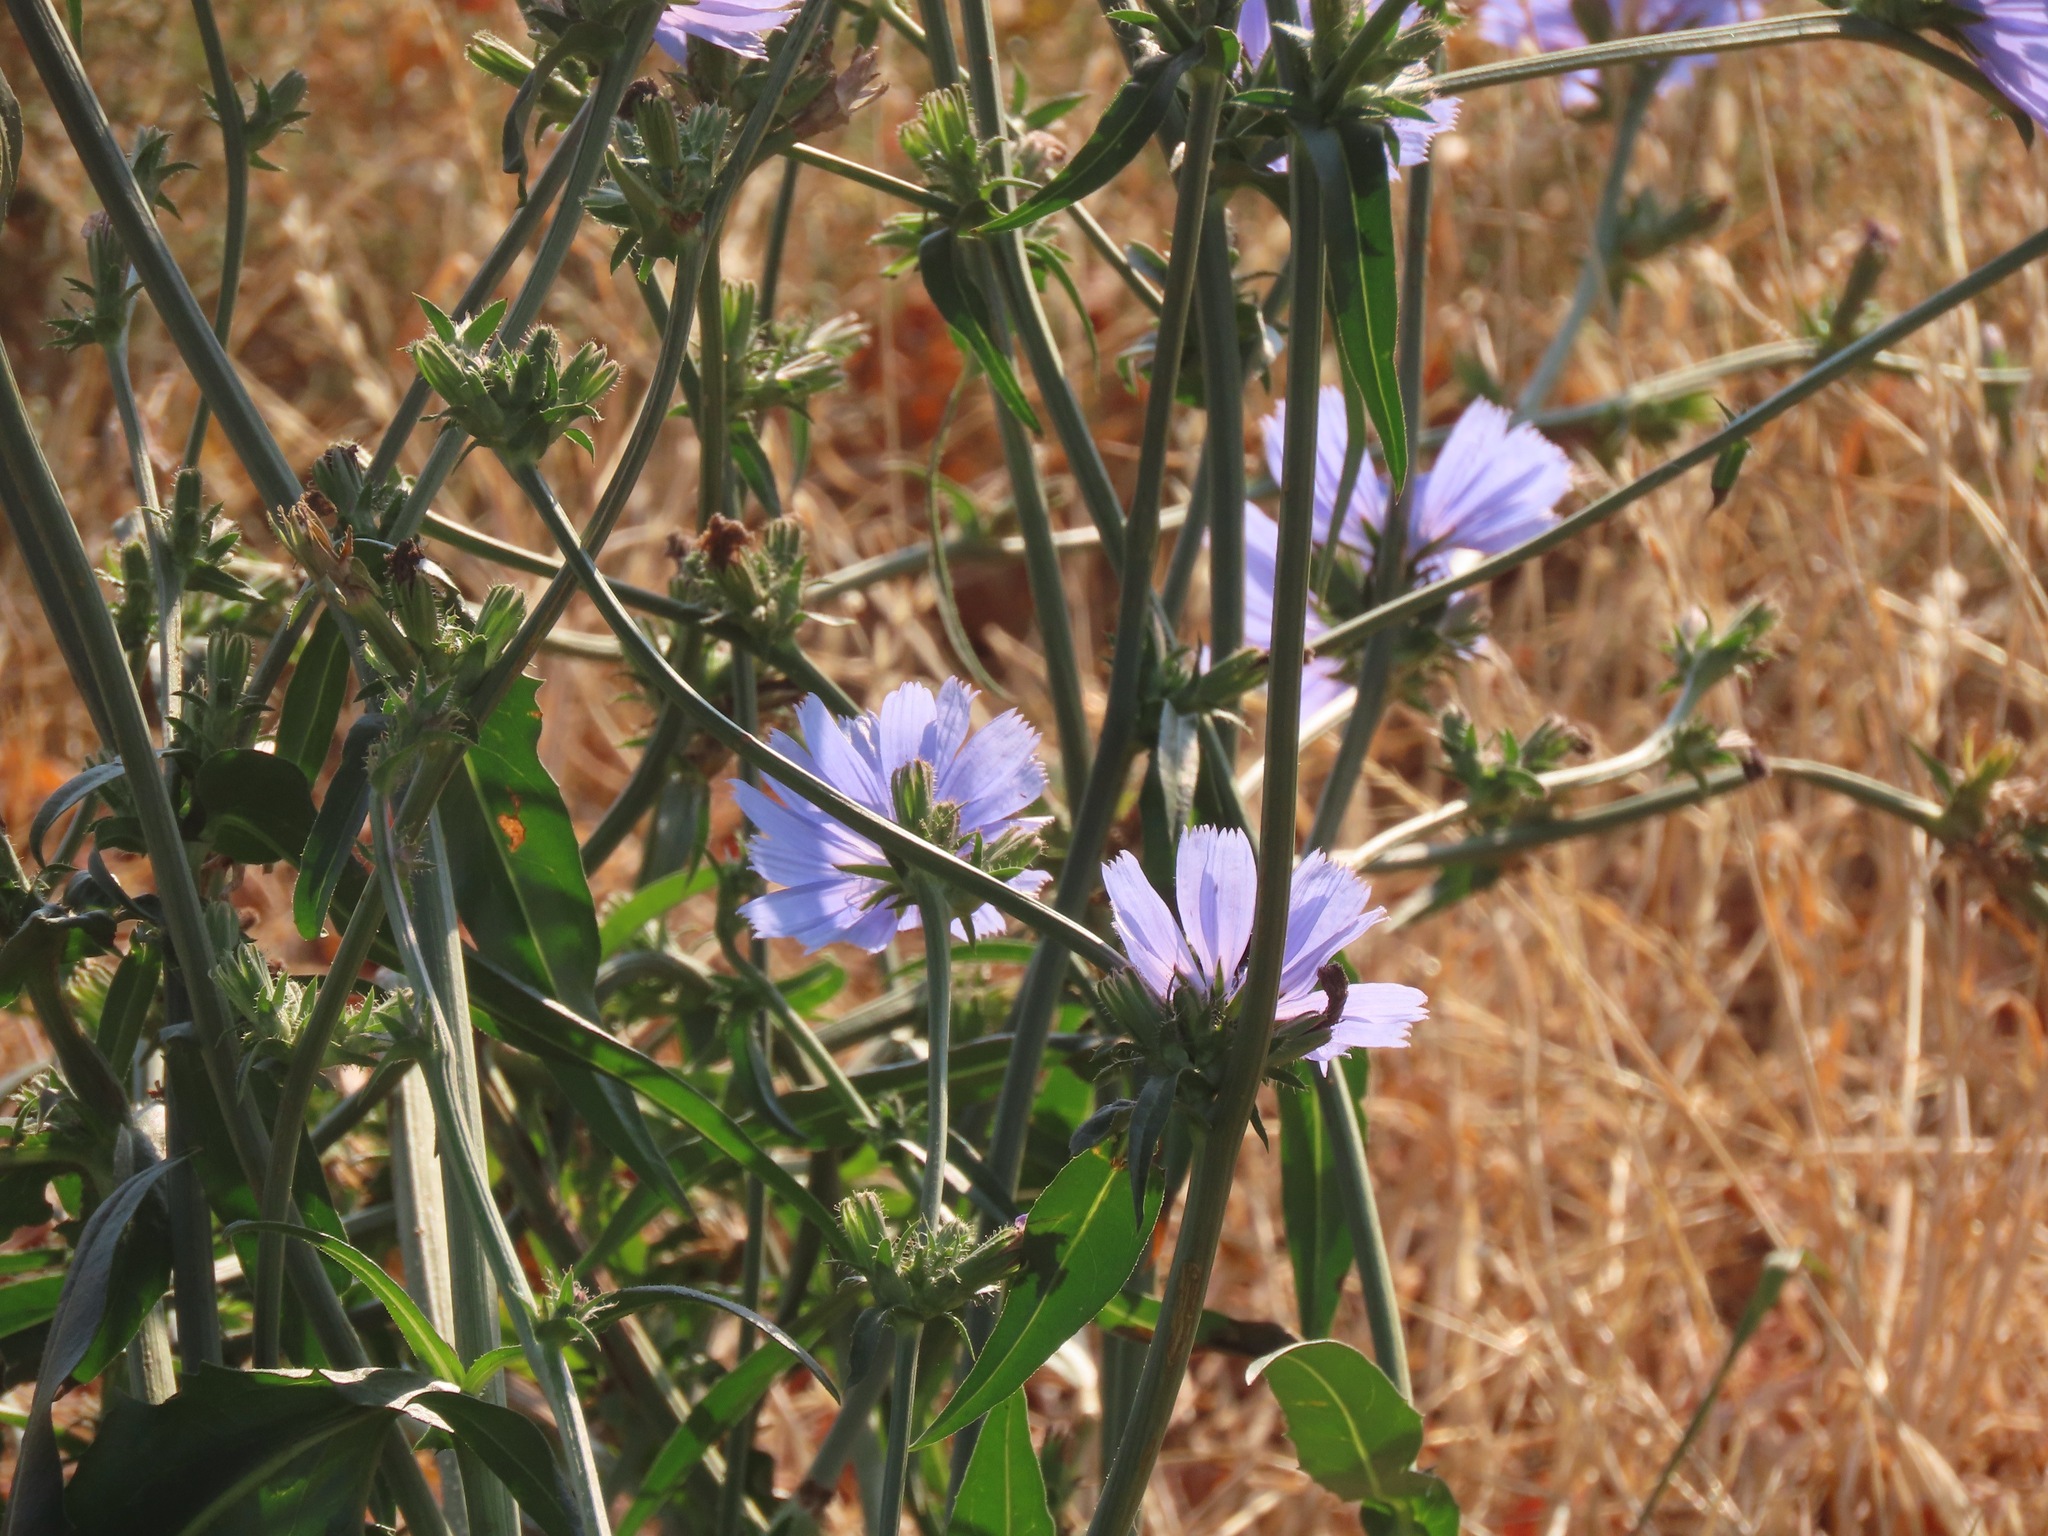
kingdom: Plantae
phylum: Tracheophyta
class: Magnoliopsida
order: Asterales
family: Asteraceae
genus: Cichorium
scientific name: Cichorium intybus
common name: Chicory
